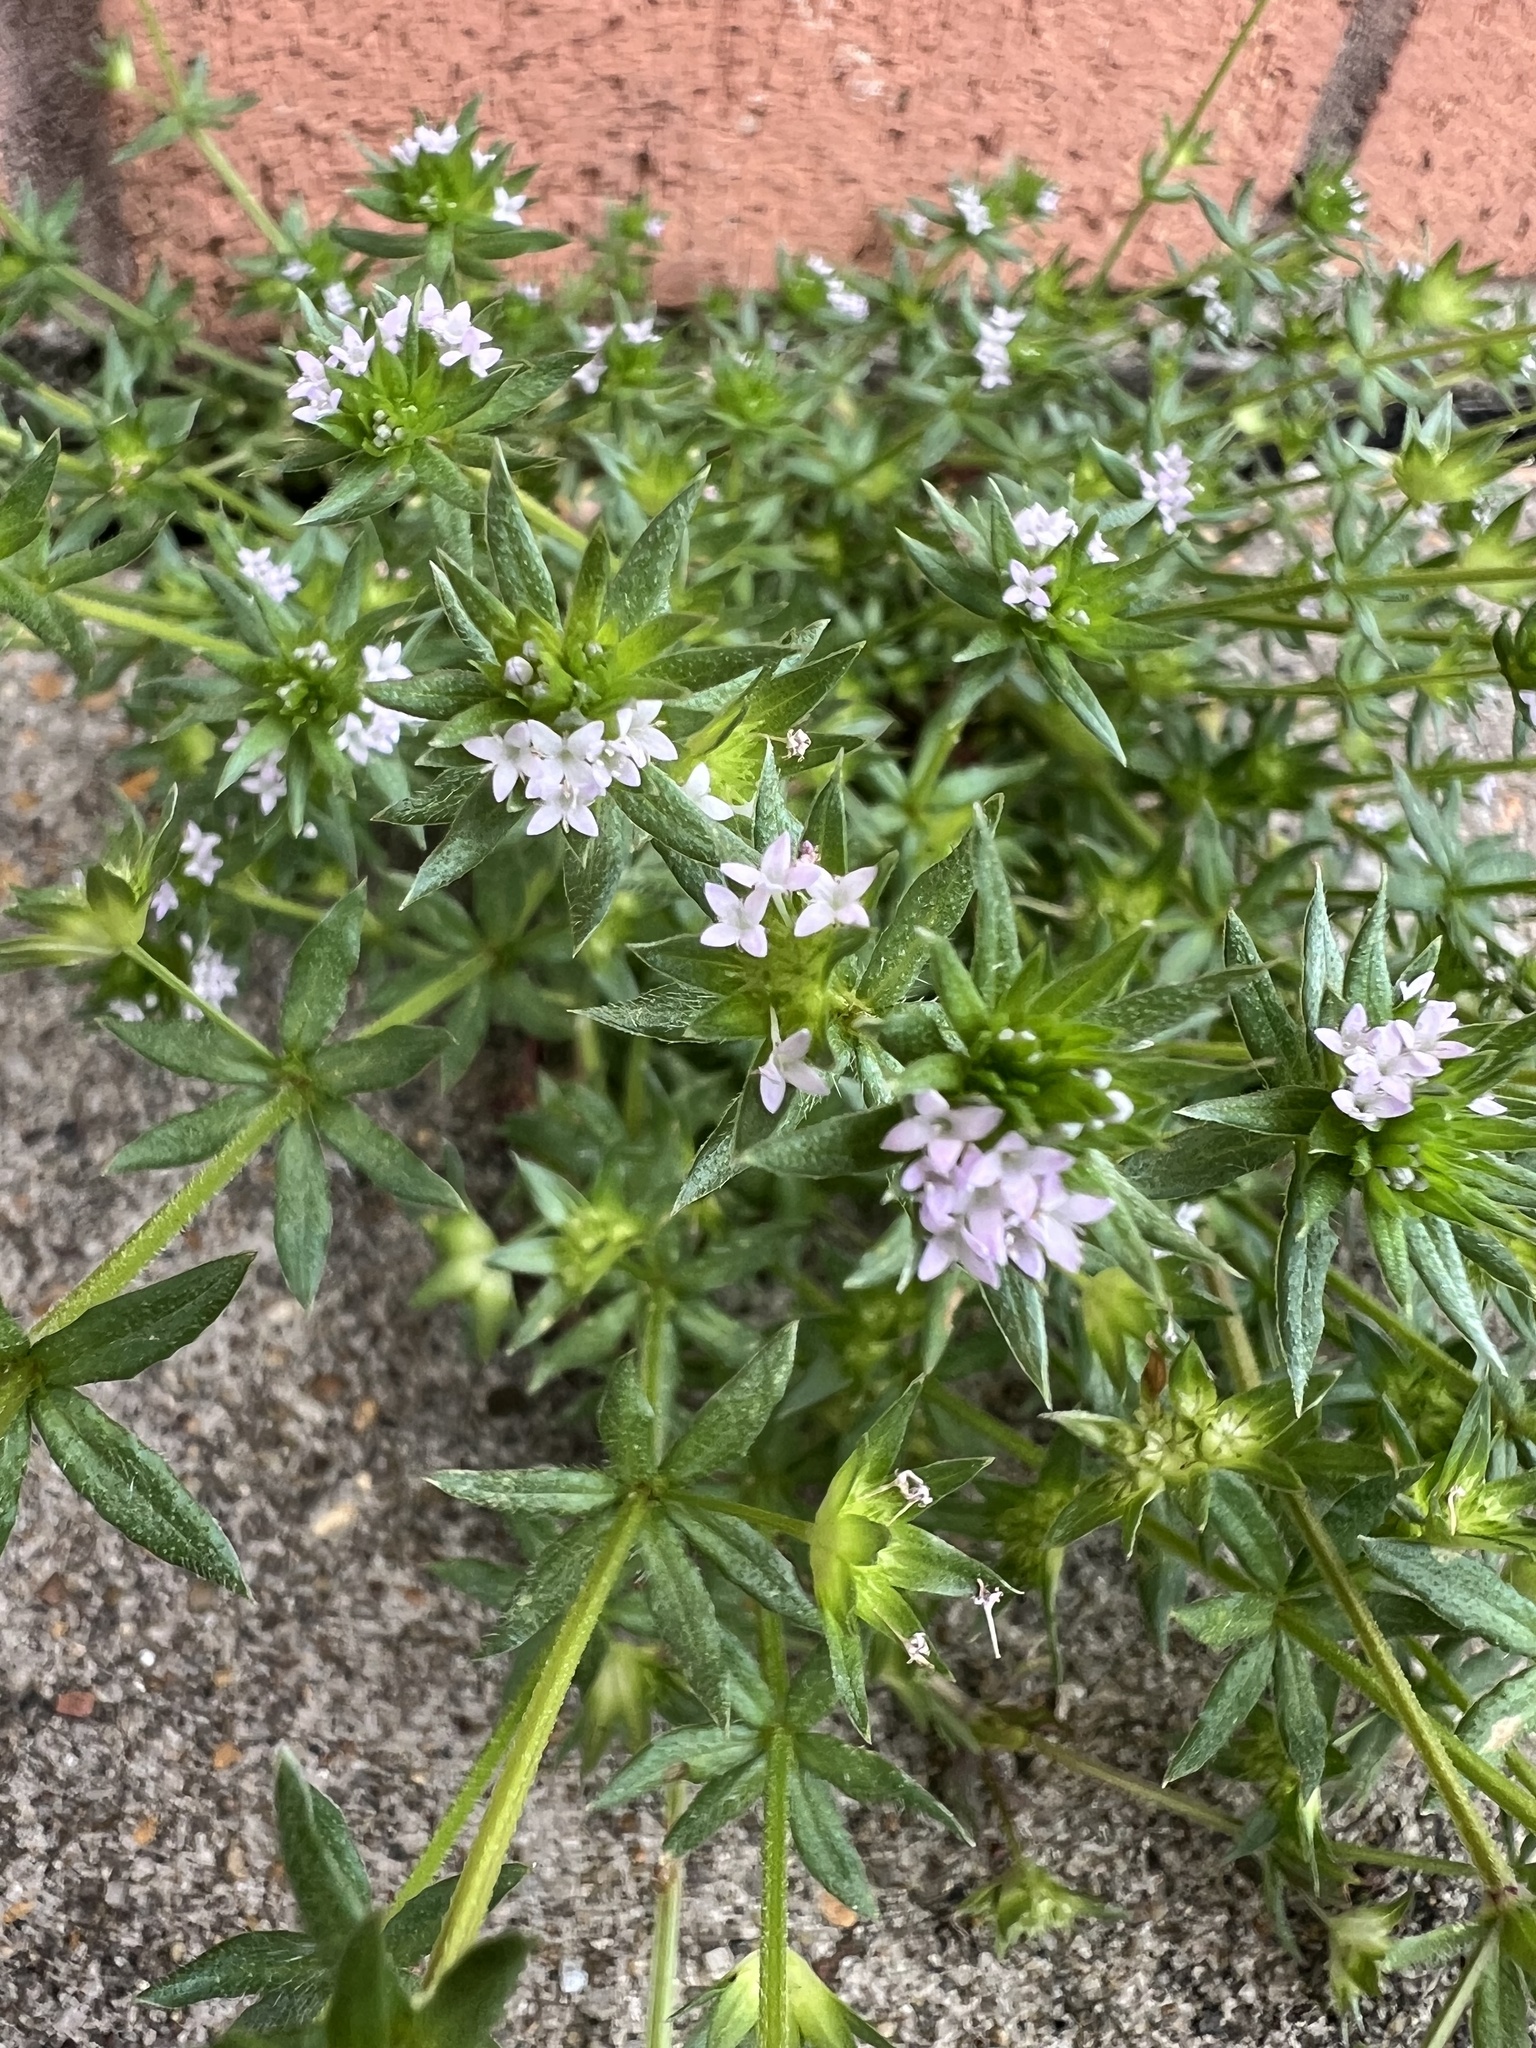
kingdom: Plantae
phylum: Tracheophyta
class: Magnoliopsida
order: Gentianales
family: Rubiaceae
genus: Sherardia
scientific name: Sherardia arvensis
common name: Field madder
